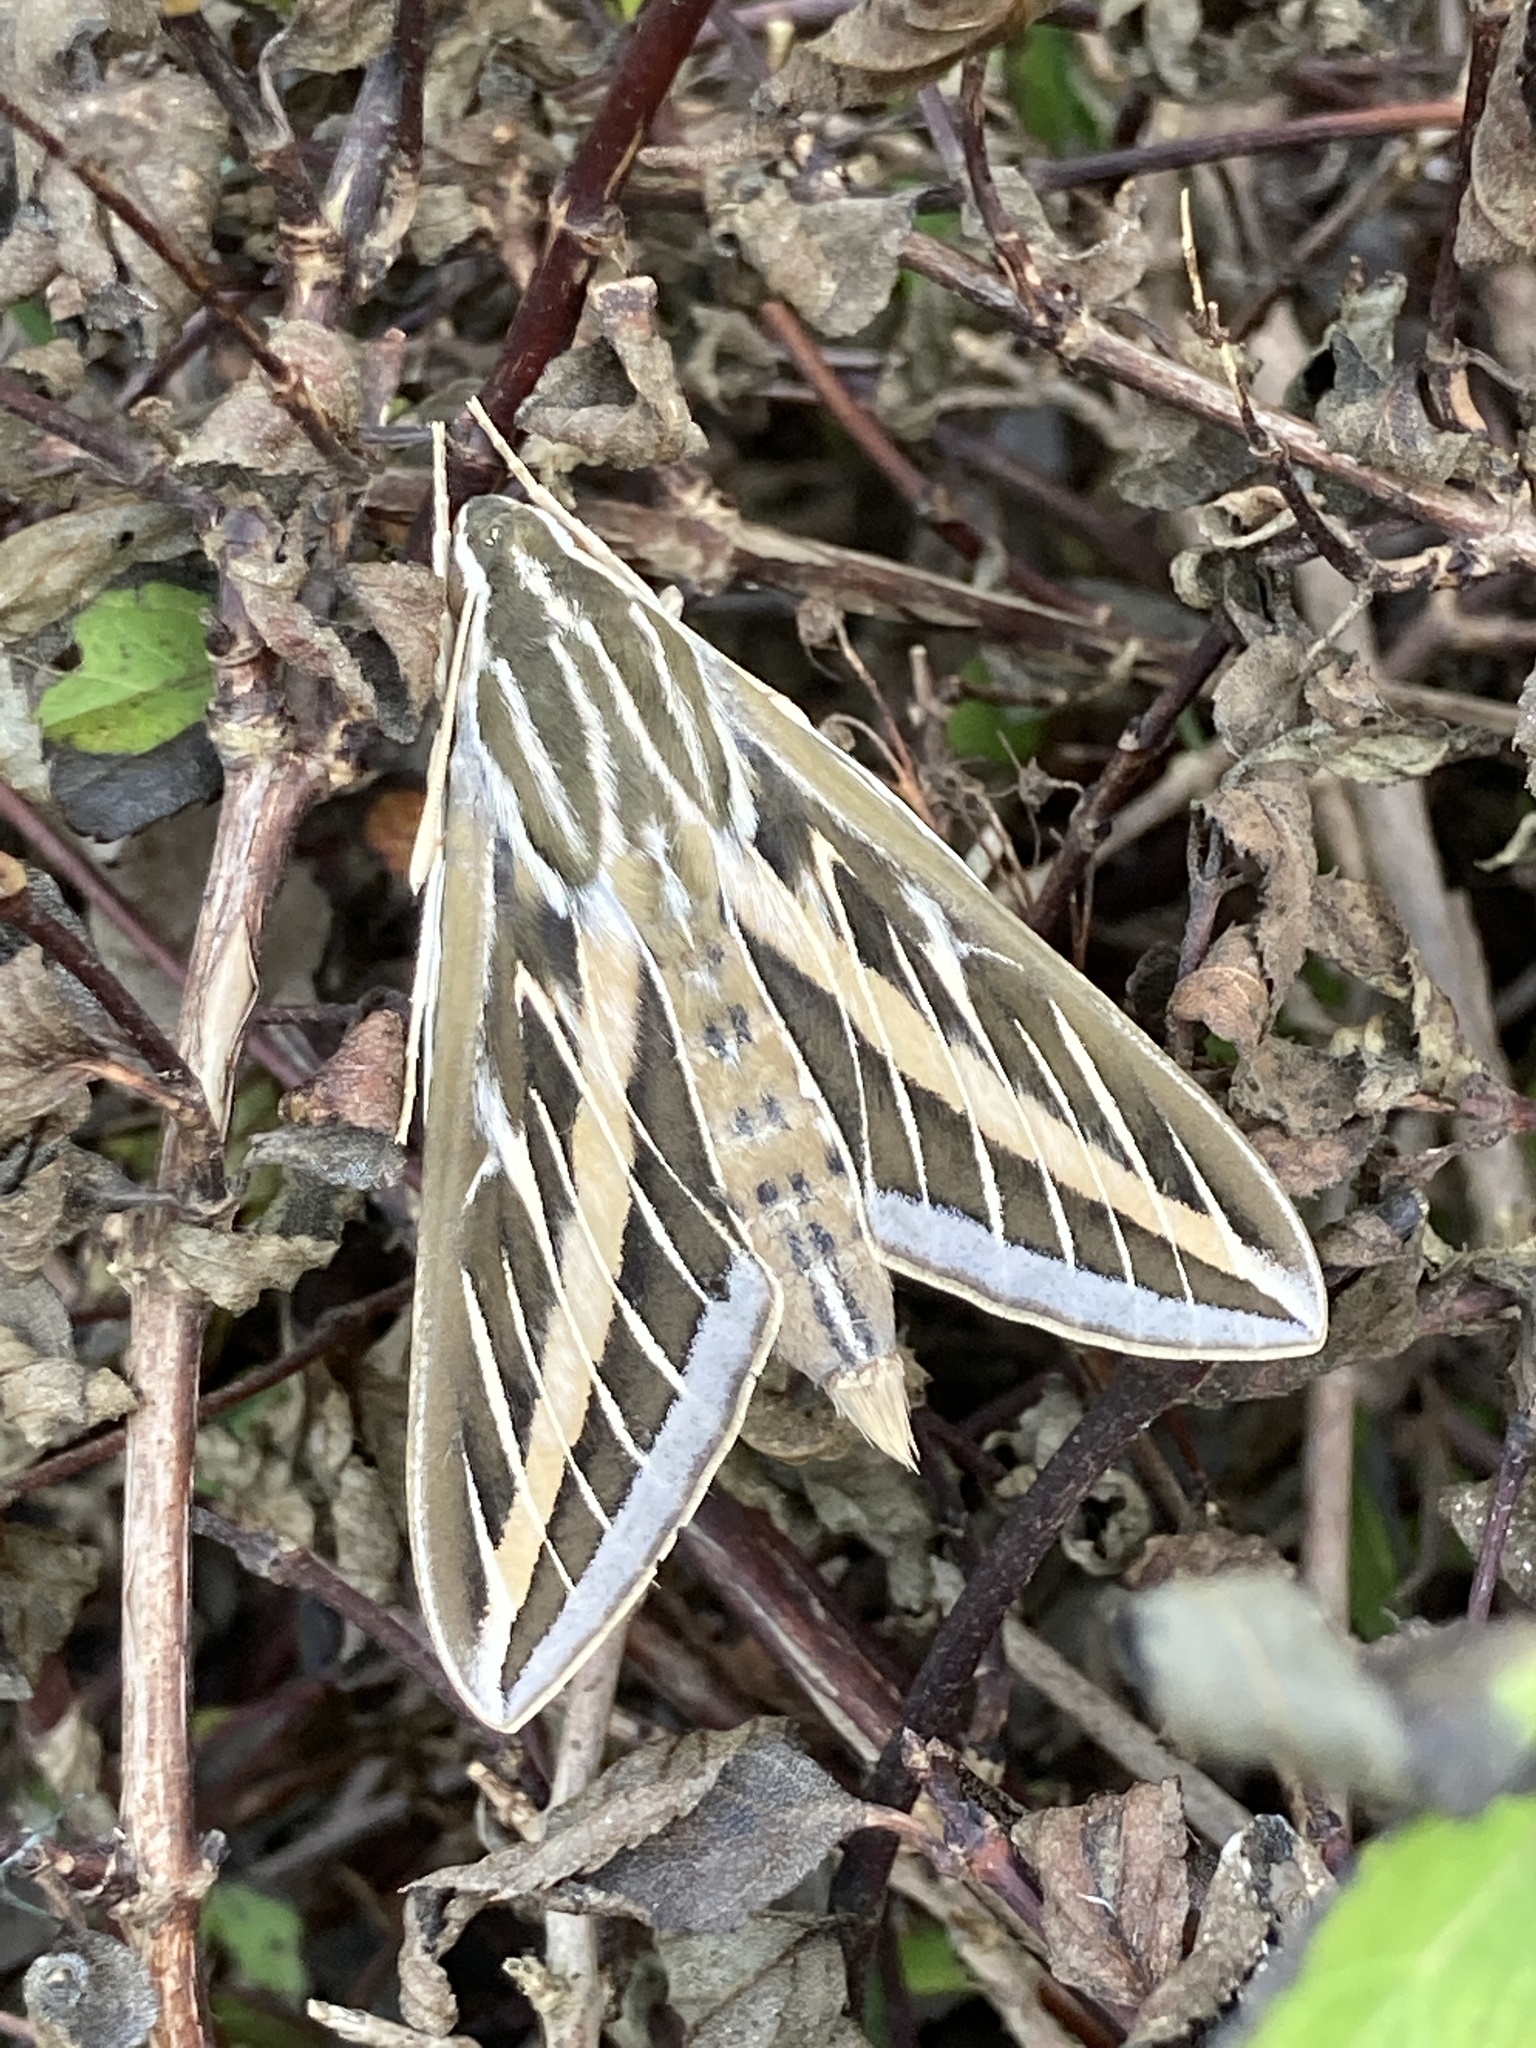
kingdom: Animalia
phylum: Arthropoda
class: Insecta
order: Lepidoptera
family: Sphingidae
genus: Hyles
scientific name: Hyles lineata
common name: White-lined sphinx
